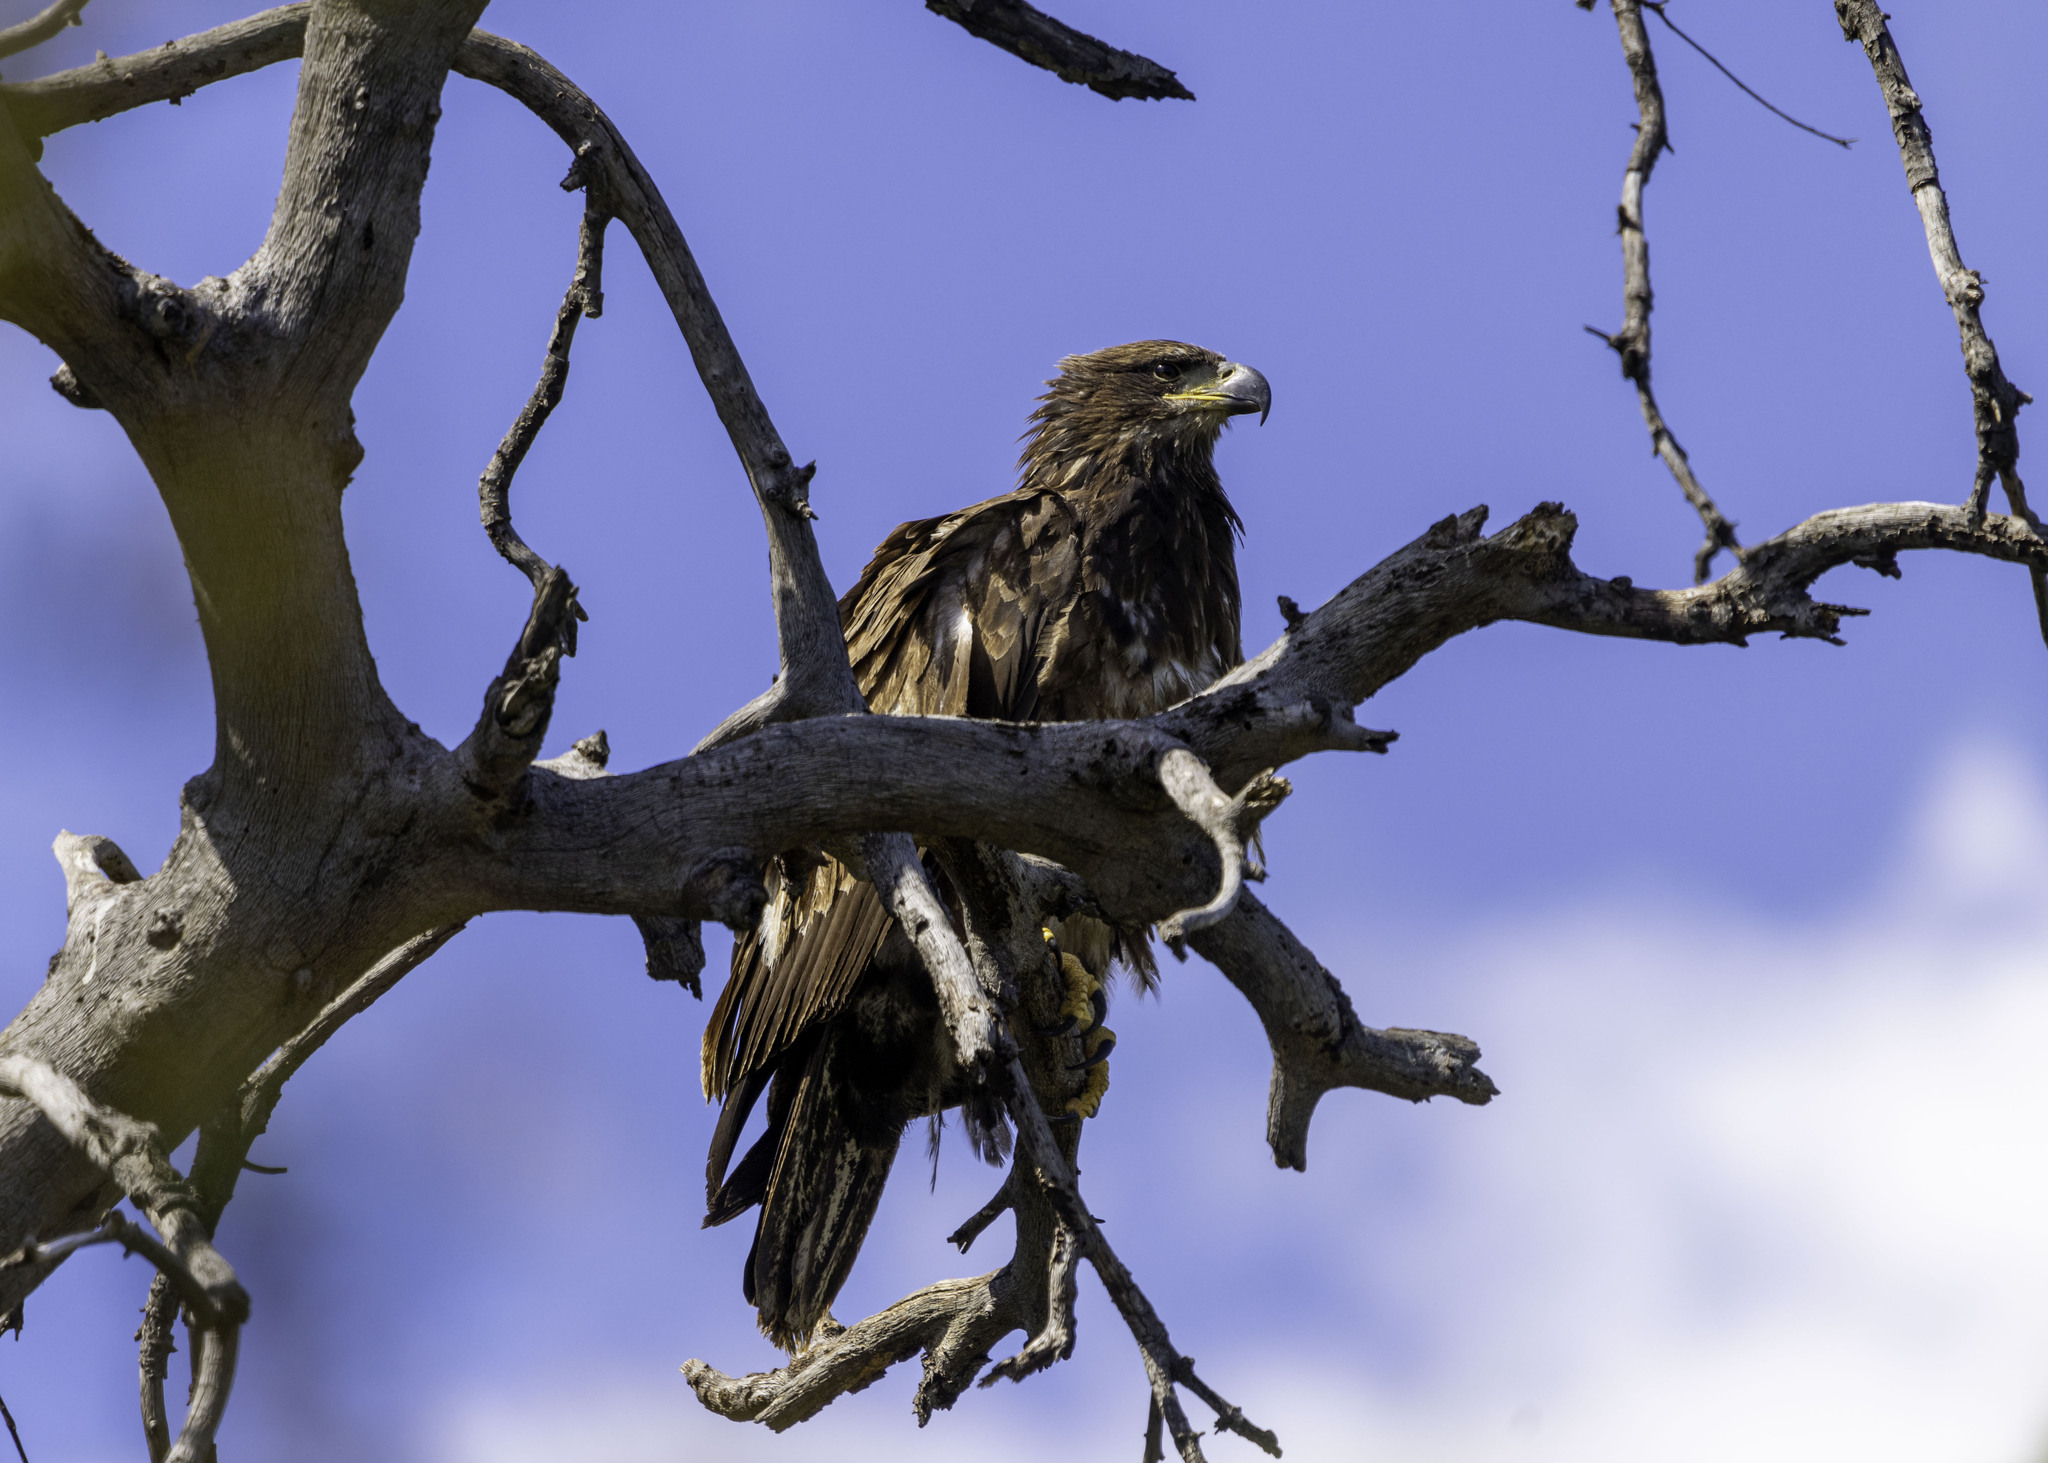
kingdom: Animalia
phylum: Chordata
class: Aves
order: Accipitriformes
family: Accipitridae
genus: Haliaeetus
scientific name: Haliaeetus leucocephalus
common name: Bald eagle
